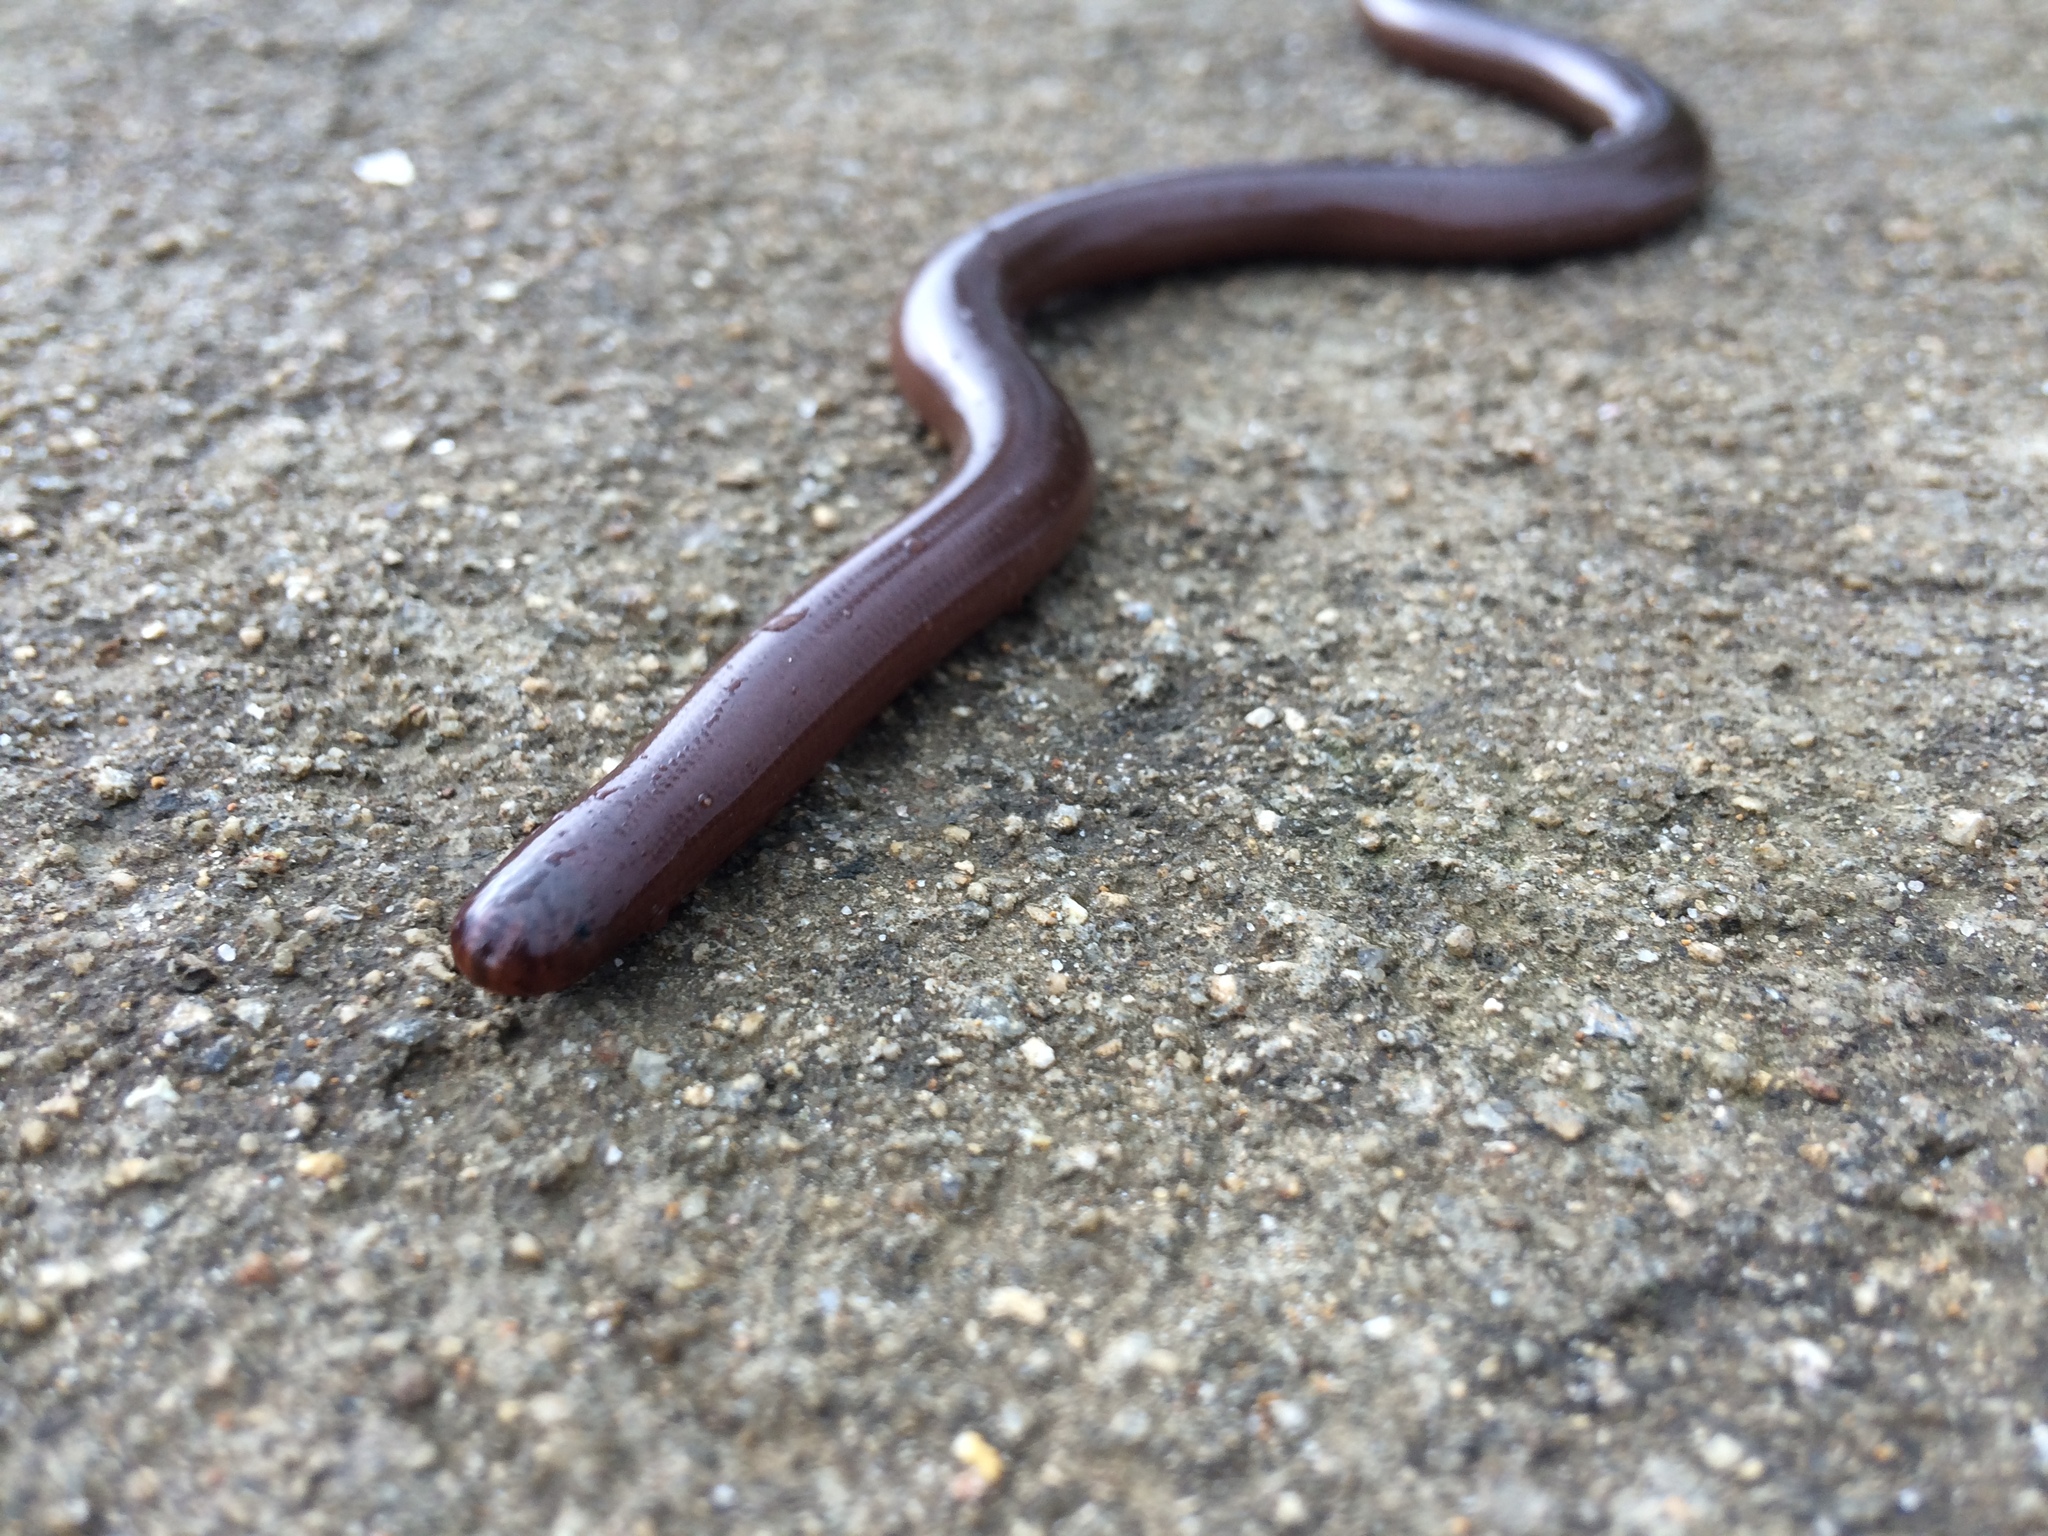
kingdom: Animalia
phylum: Chordata
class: Squamata
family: Typhlopidae
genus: Argyrophis
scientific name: Argyrophis diardii
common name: Diard's blindsnake
